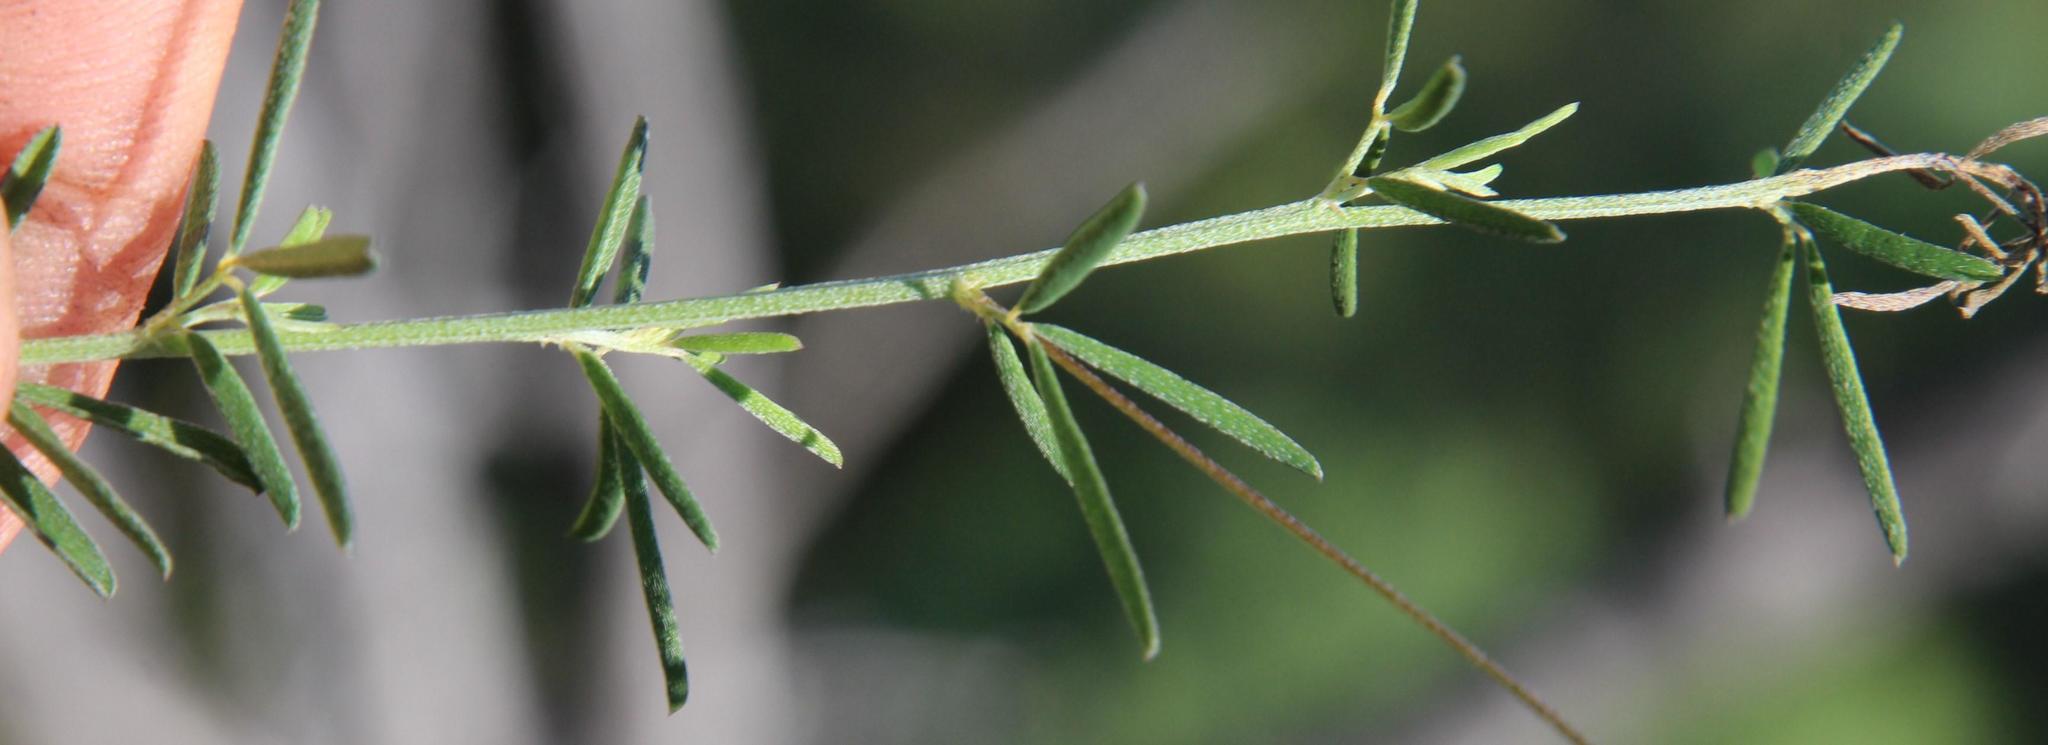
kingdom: Plantae
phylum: Tracheophyta
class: Magnoliopsida
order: Fabales
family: Fabaceae
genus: Indigofera
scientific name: Indigofera punctata
